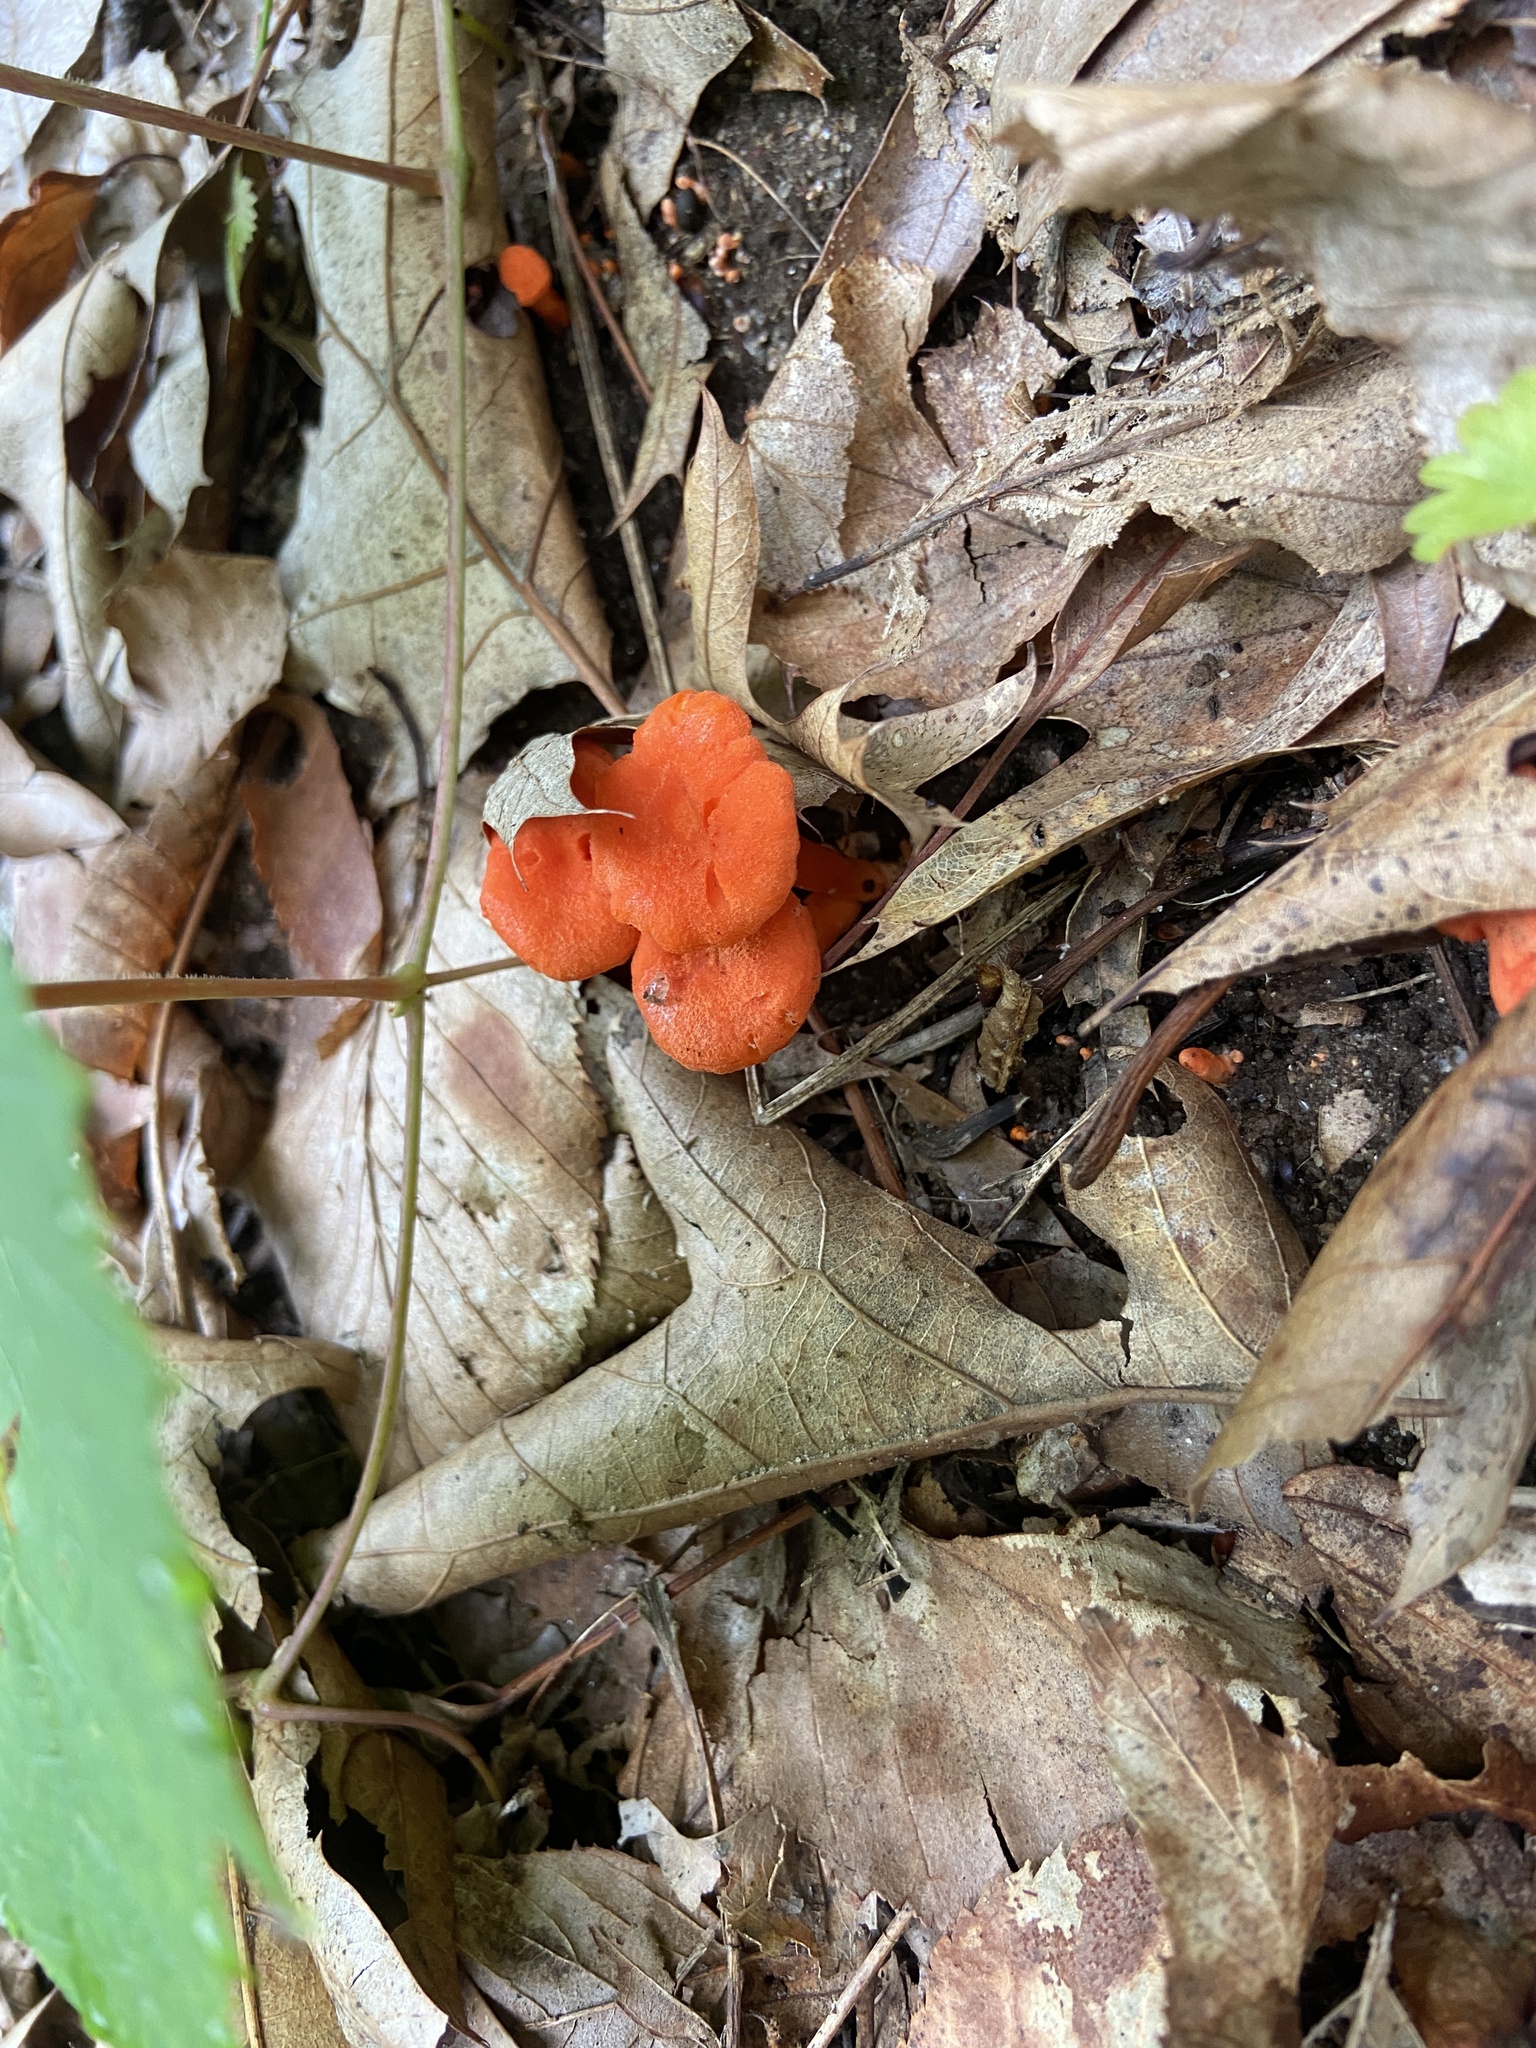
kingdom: Fungi
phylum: Basidiomycota
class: Agaricomycetes
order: Cantharellales
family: Hydnaceae
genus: Cantharellus
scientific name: Cantharellus cinnabarinus
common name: Cinnabar chanterelle
